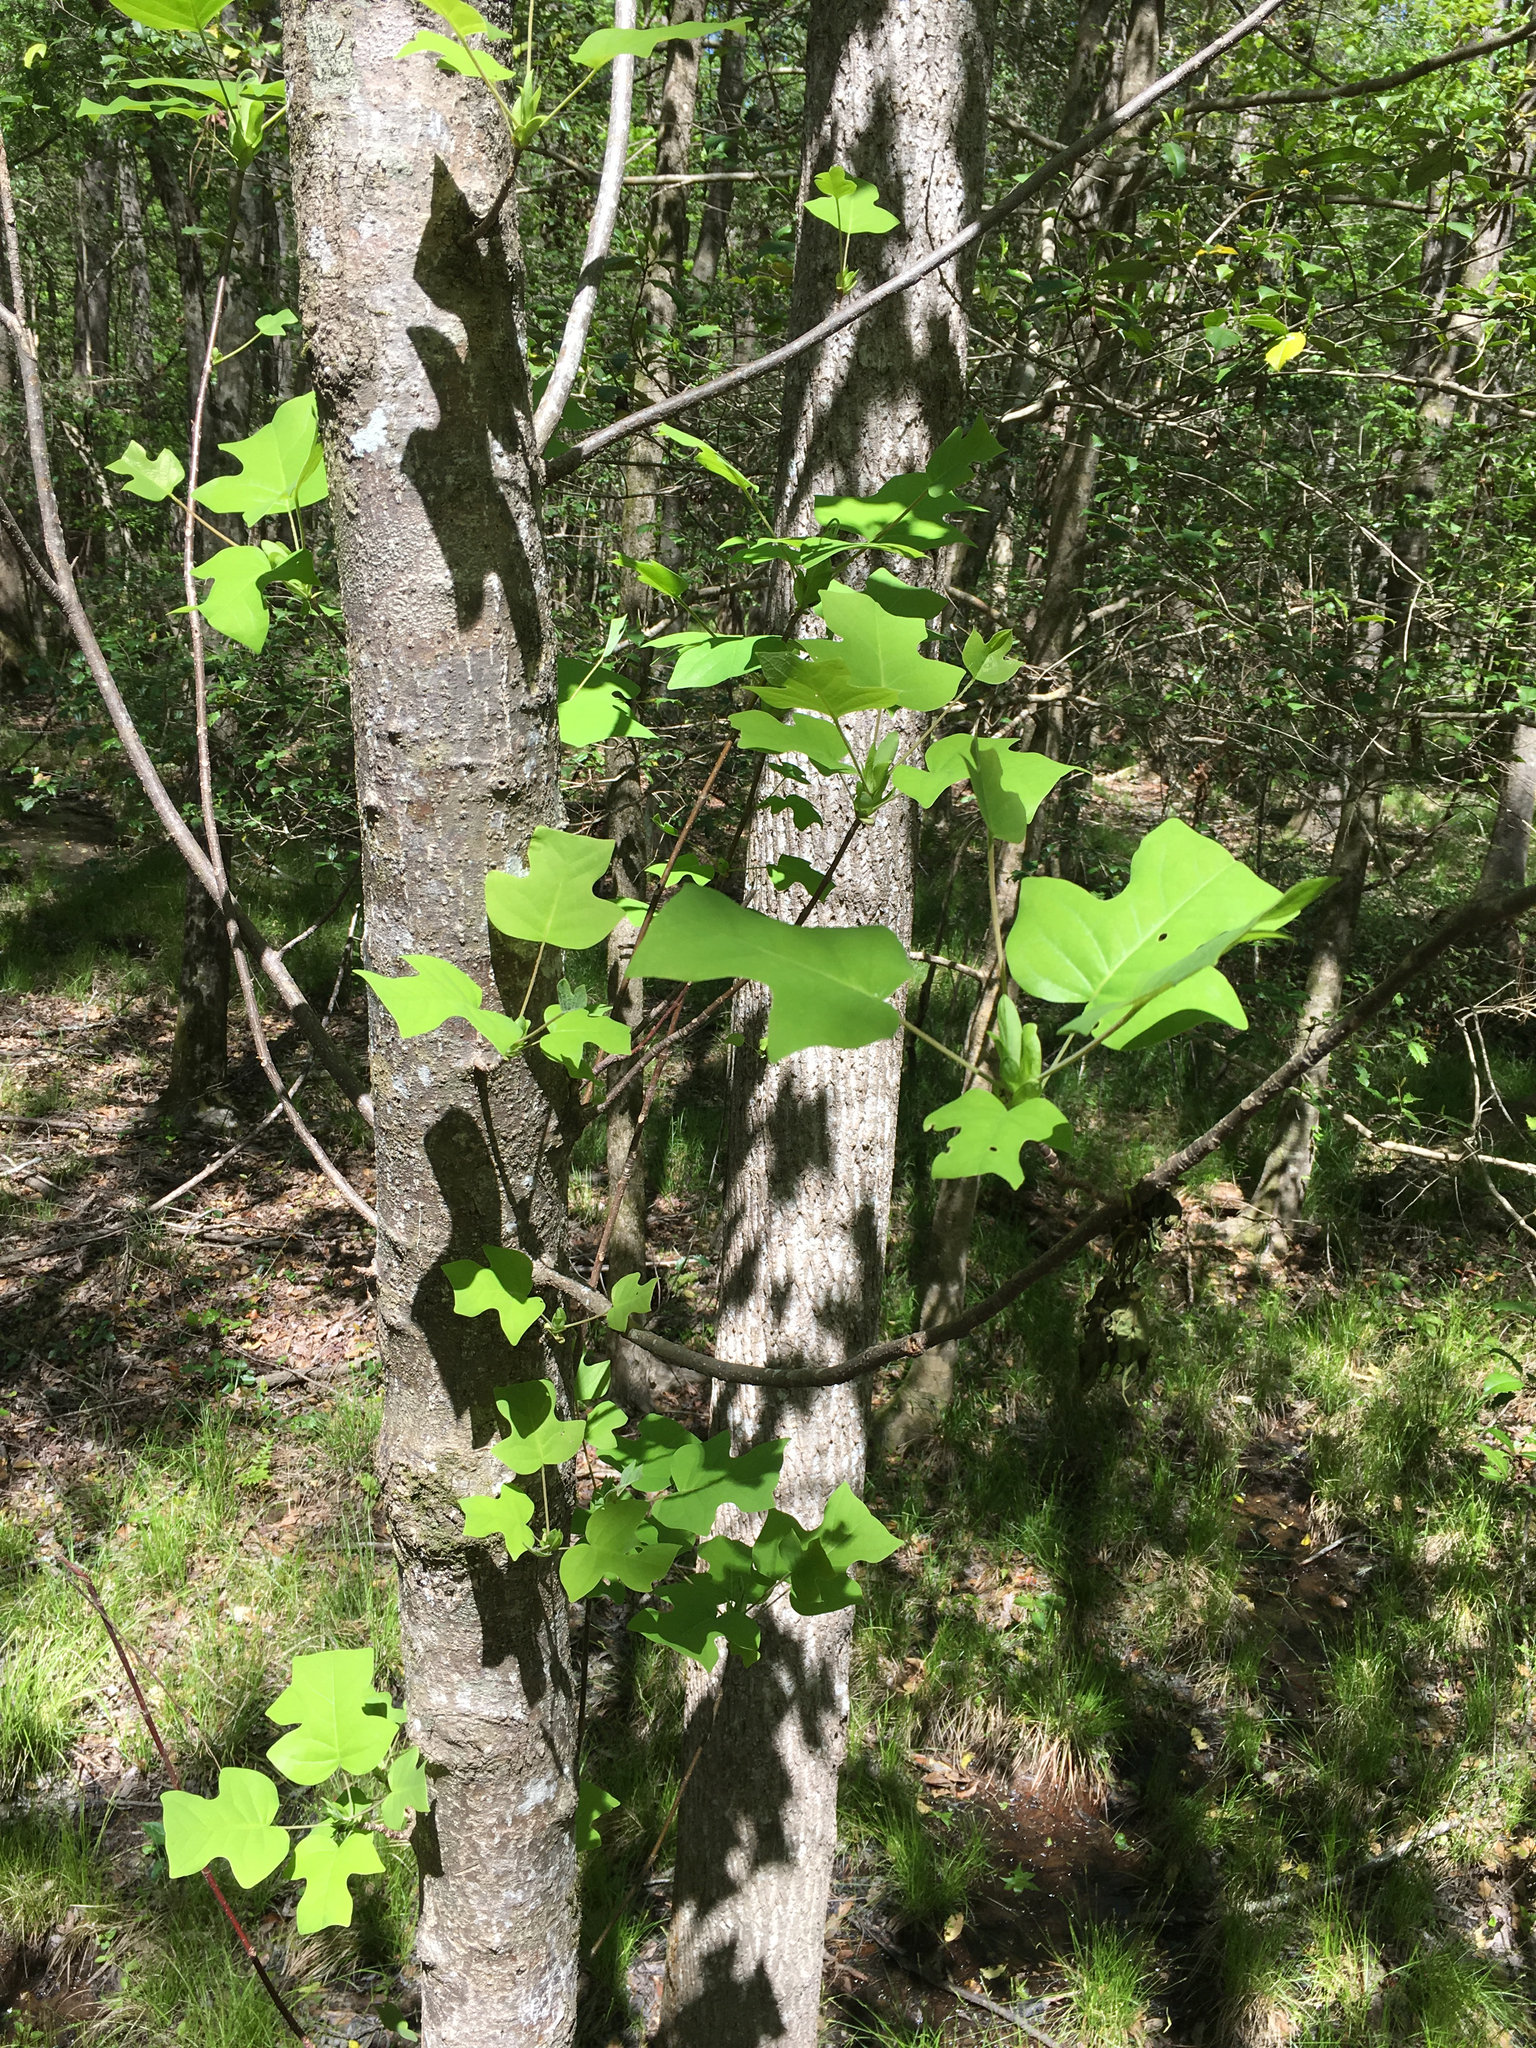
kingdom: Plantae
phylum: Tracheophyta
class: Magnoliopsida
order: Magnoliales
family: Magnoliaceae
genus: Liriodendron
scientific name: Liriodendron tulipifera
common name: Tulip tree
